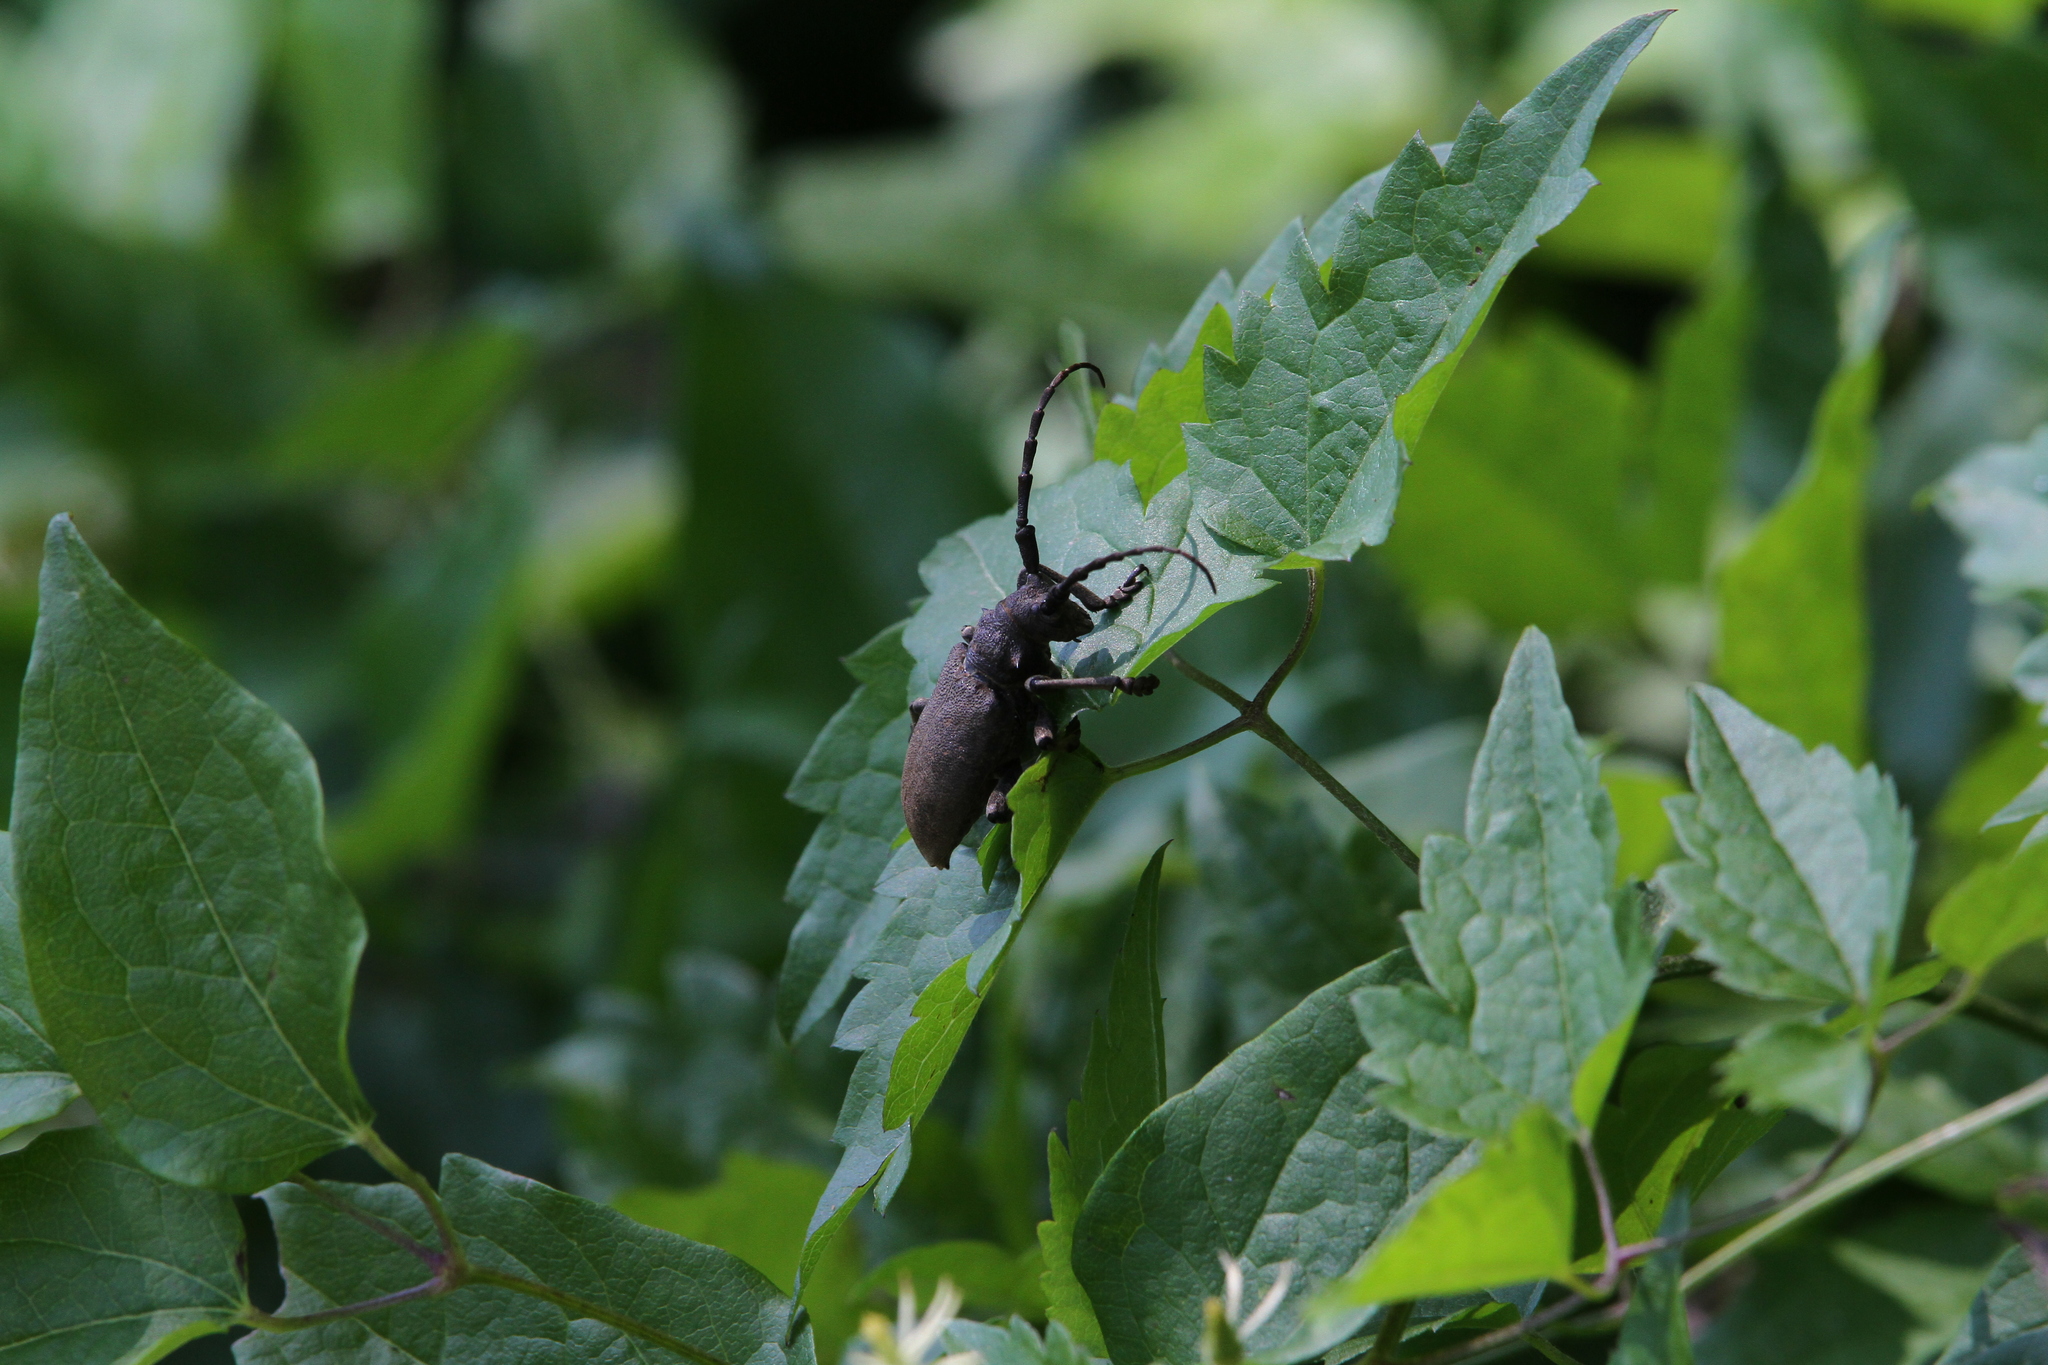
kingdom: Animalia
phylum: Arthropoda
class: Insecta
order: Coleoptera
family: Cerambycidae
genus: Lamia
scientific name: Lamia textor
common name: Weaver beetle
